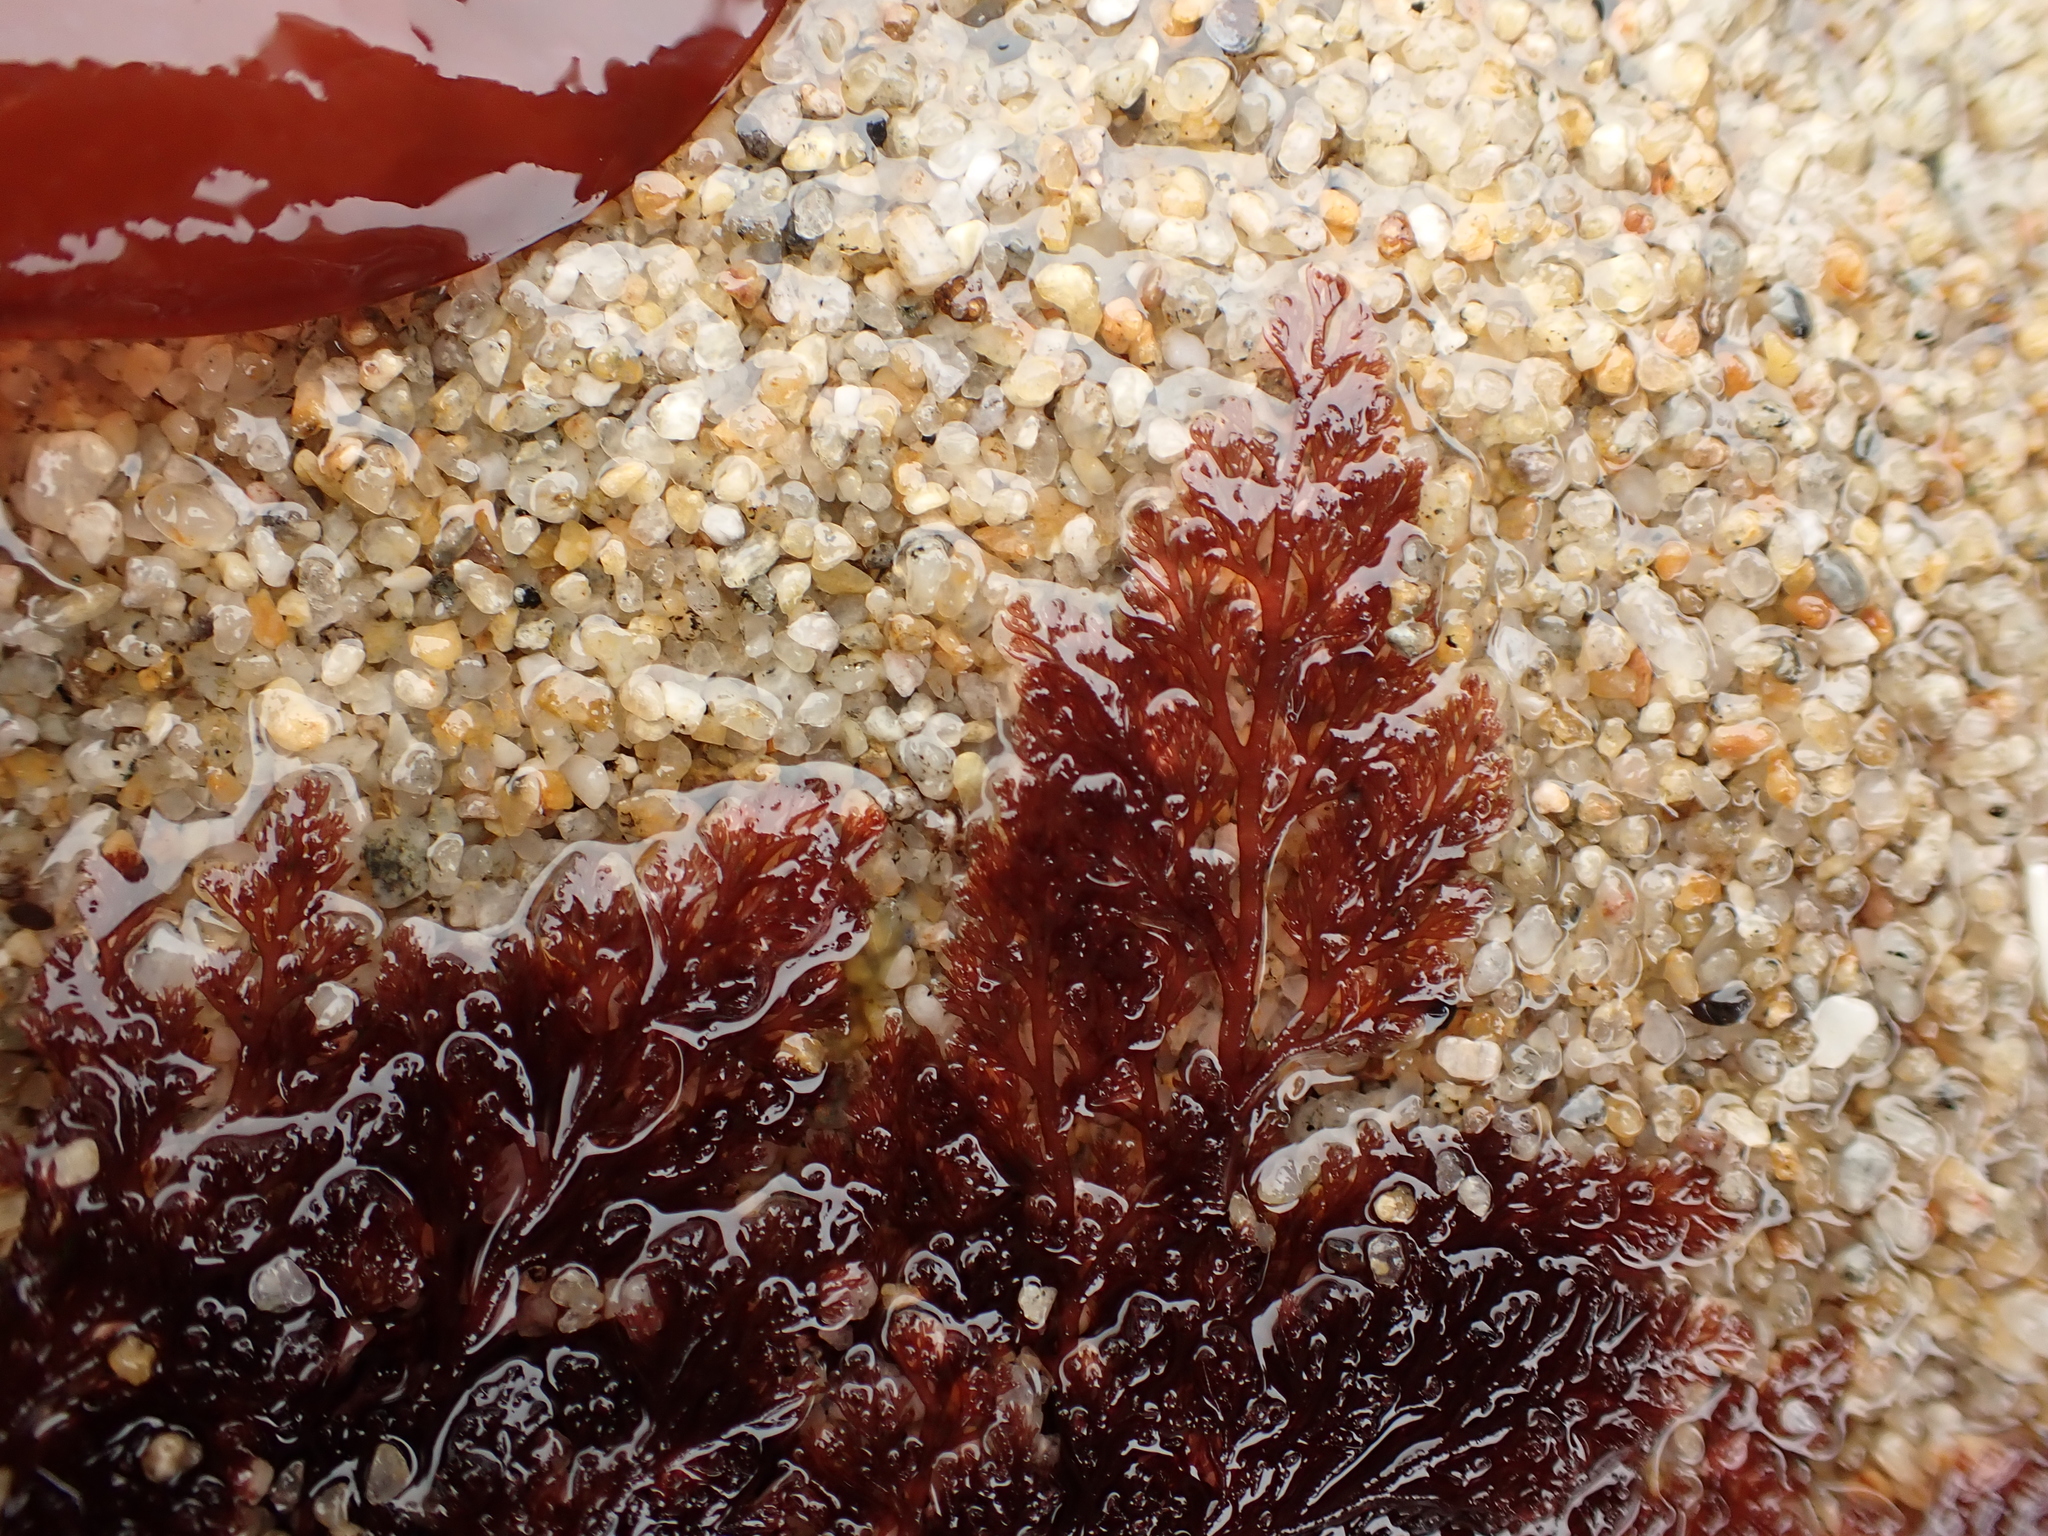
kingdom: Plantae
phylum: Rhodophyta
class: Florideophyceae
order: Ceramiales
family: Ceramiaceae
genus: Microcladia
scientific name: Microcladia coulteri
